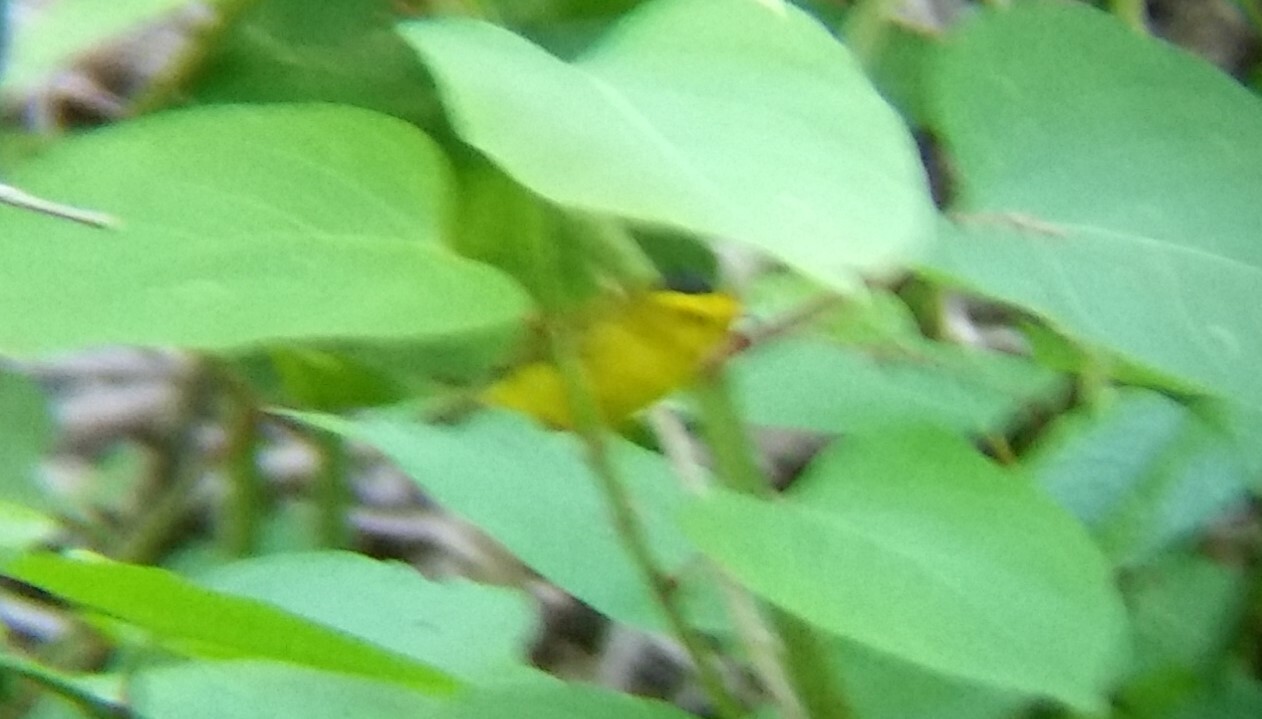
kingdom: Animalia
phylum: Chordata
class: Aves
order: Passeriformes
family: Parulidae
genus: Cardellina
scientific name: Cardellina pusilla
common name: Wilson's warbler
